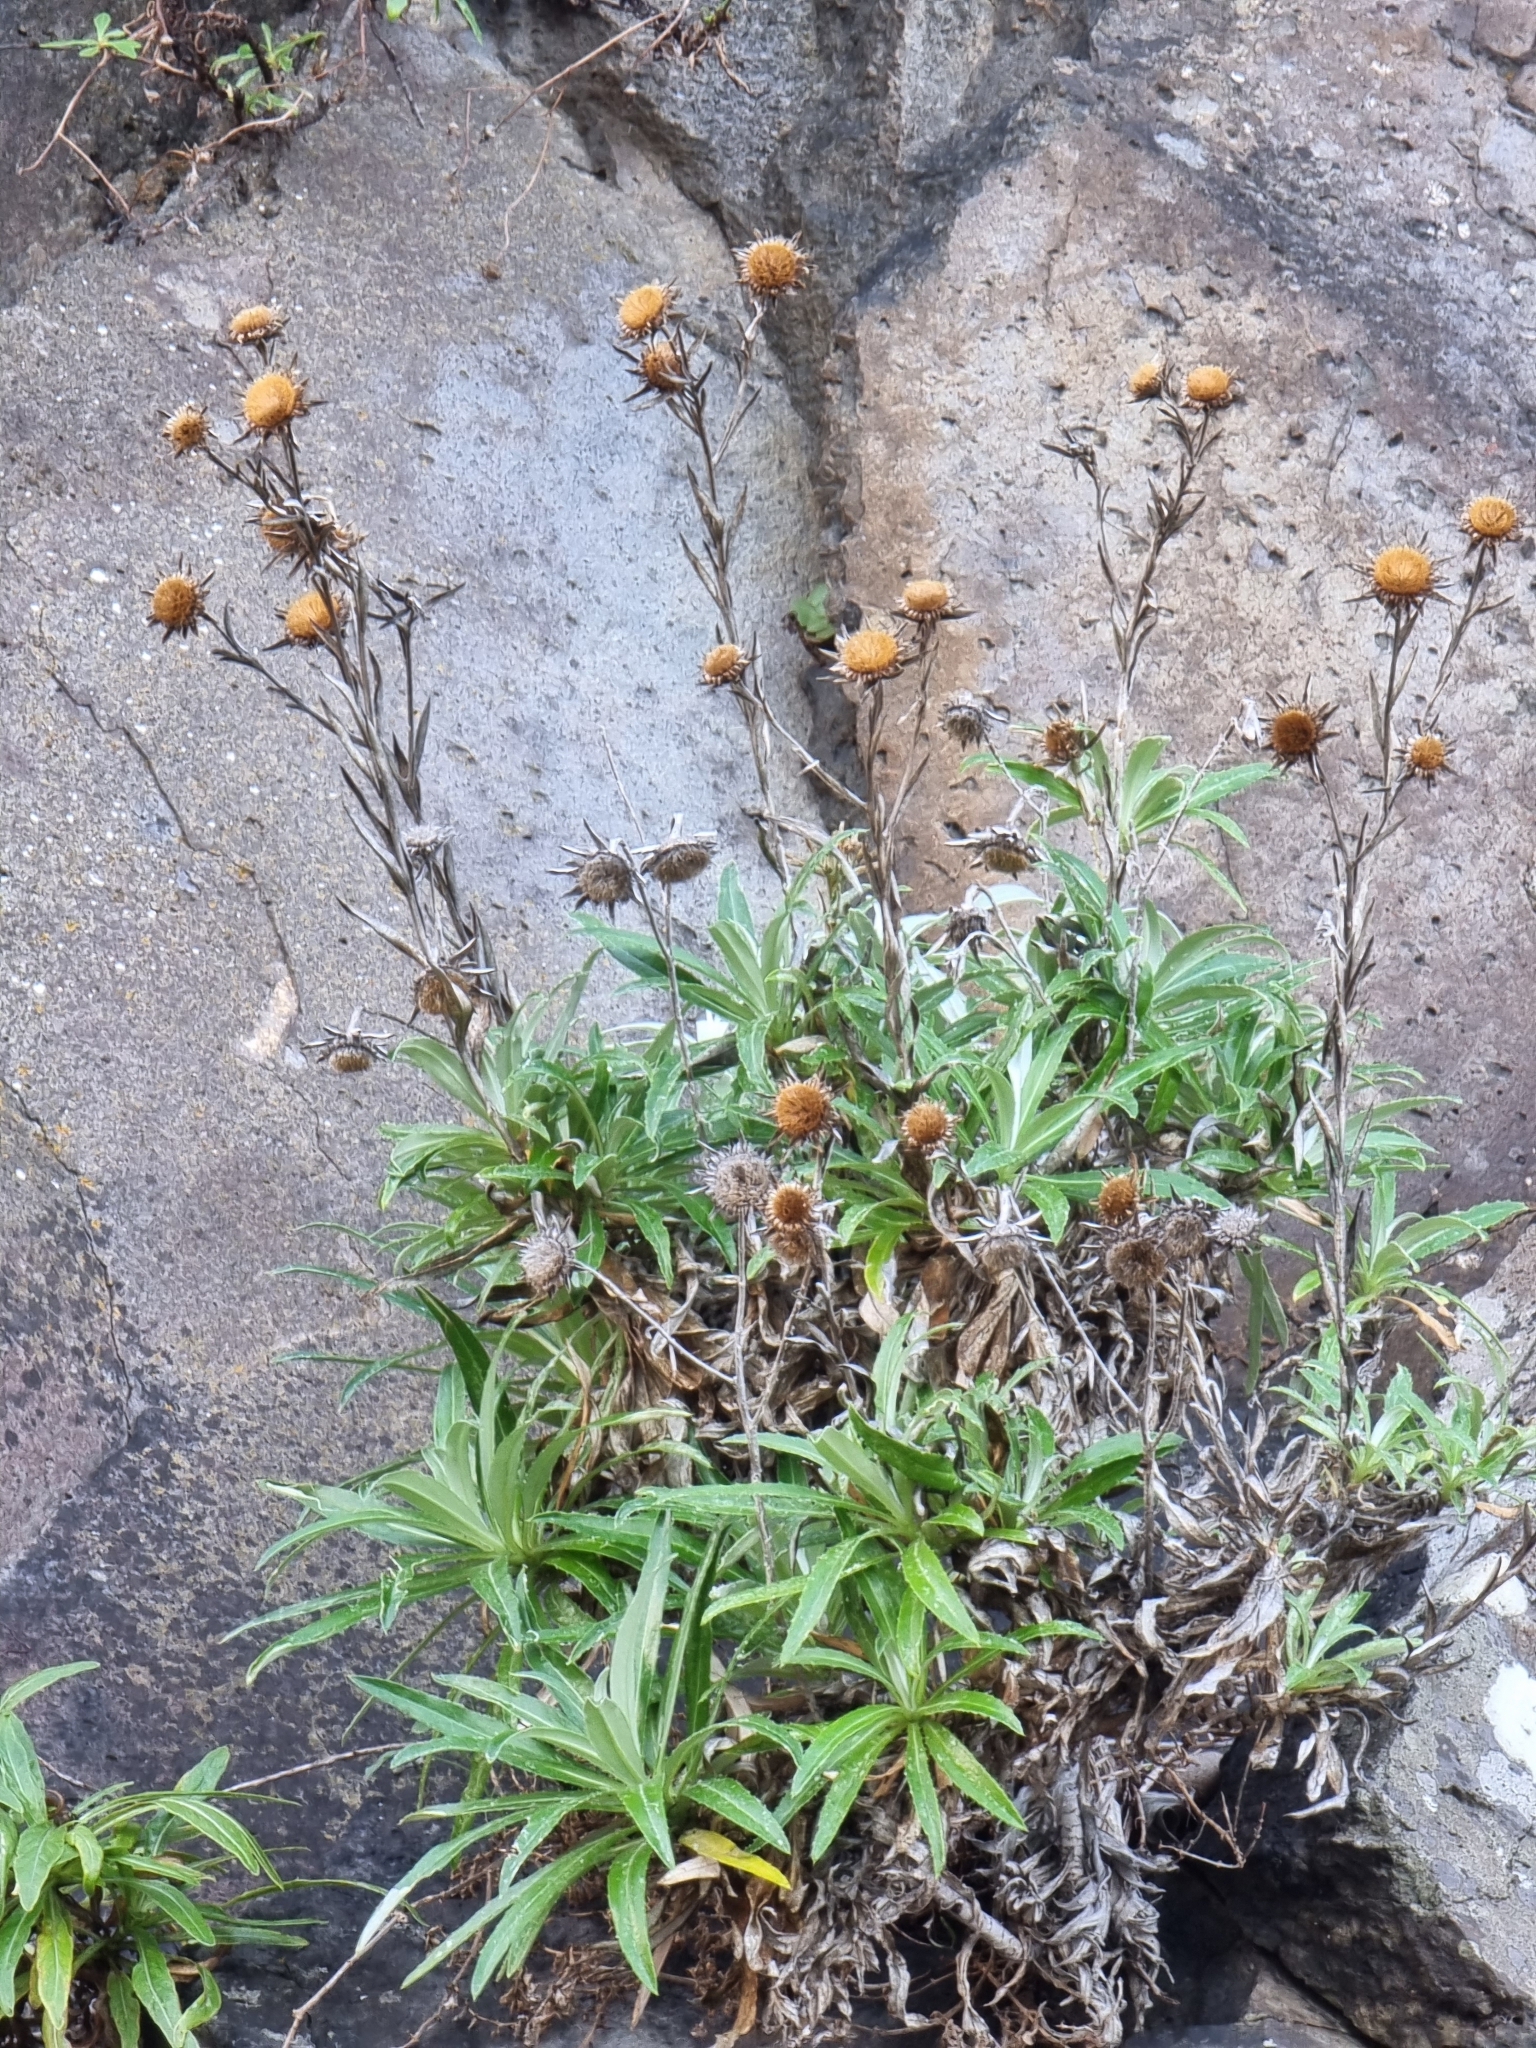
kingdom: Plantae
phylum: Tracheophyta
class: Magnoliopsida
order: Asterales
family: Asteraceae
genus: Carlina
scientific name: Carlina salicifolia
